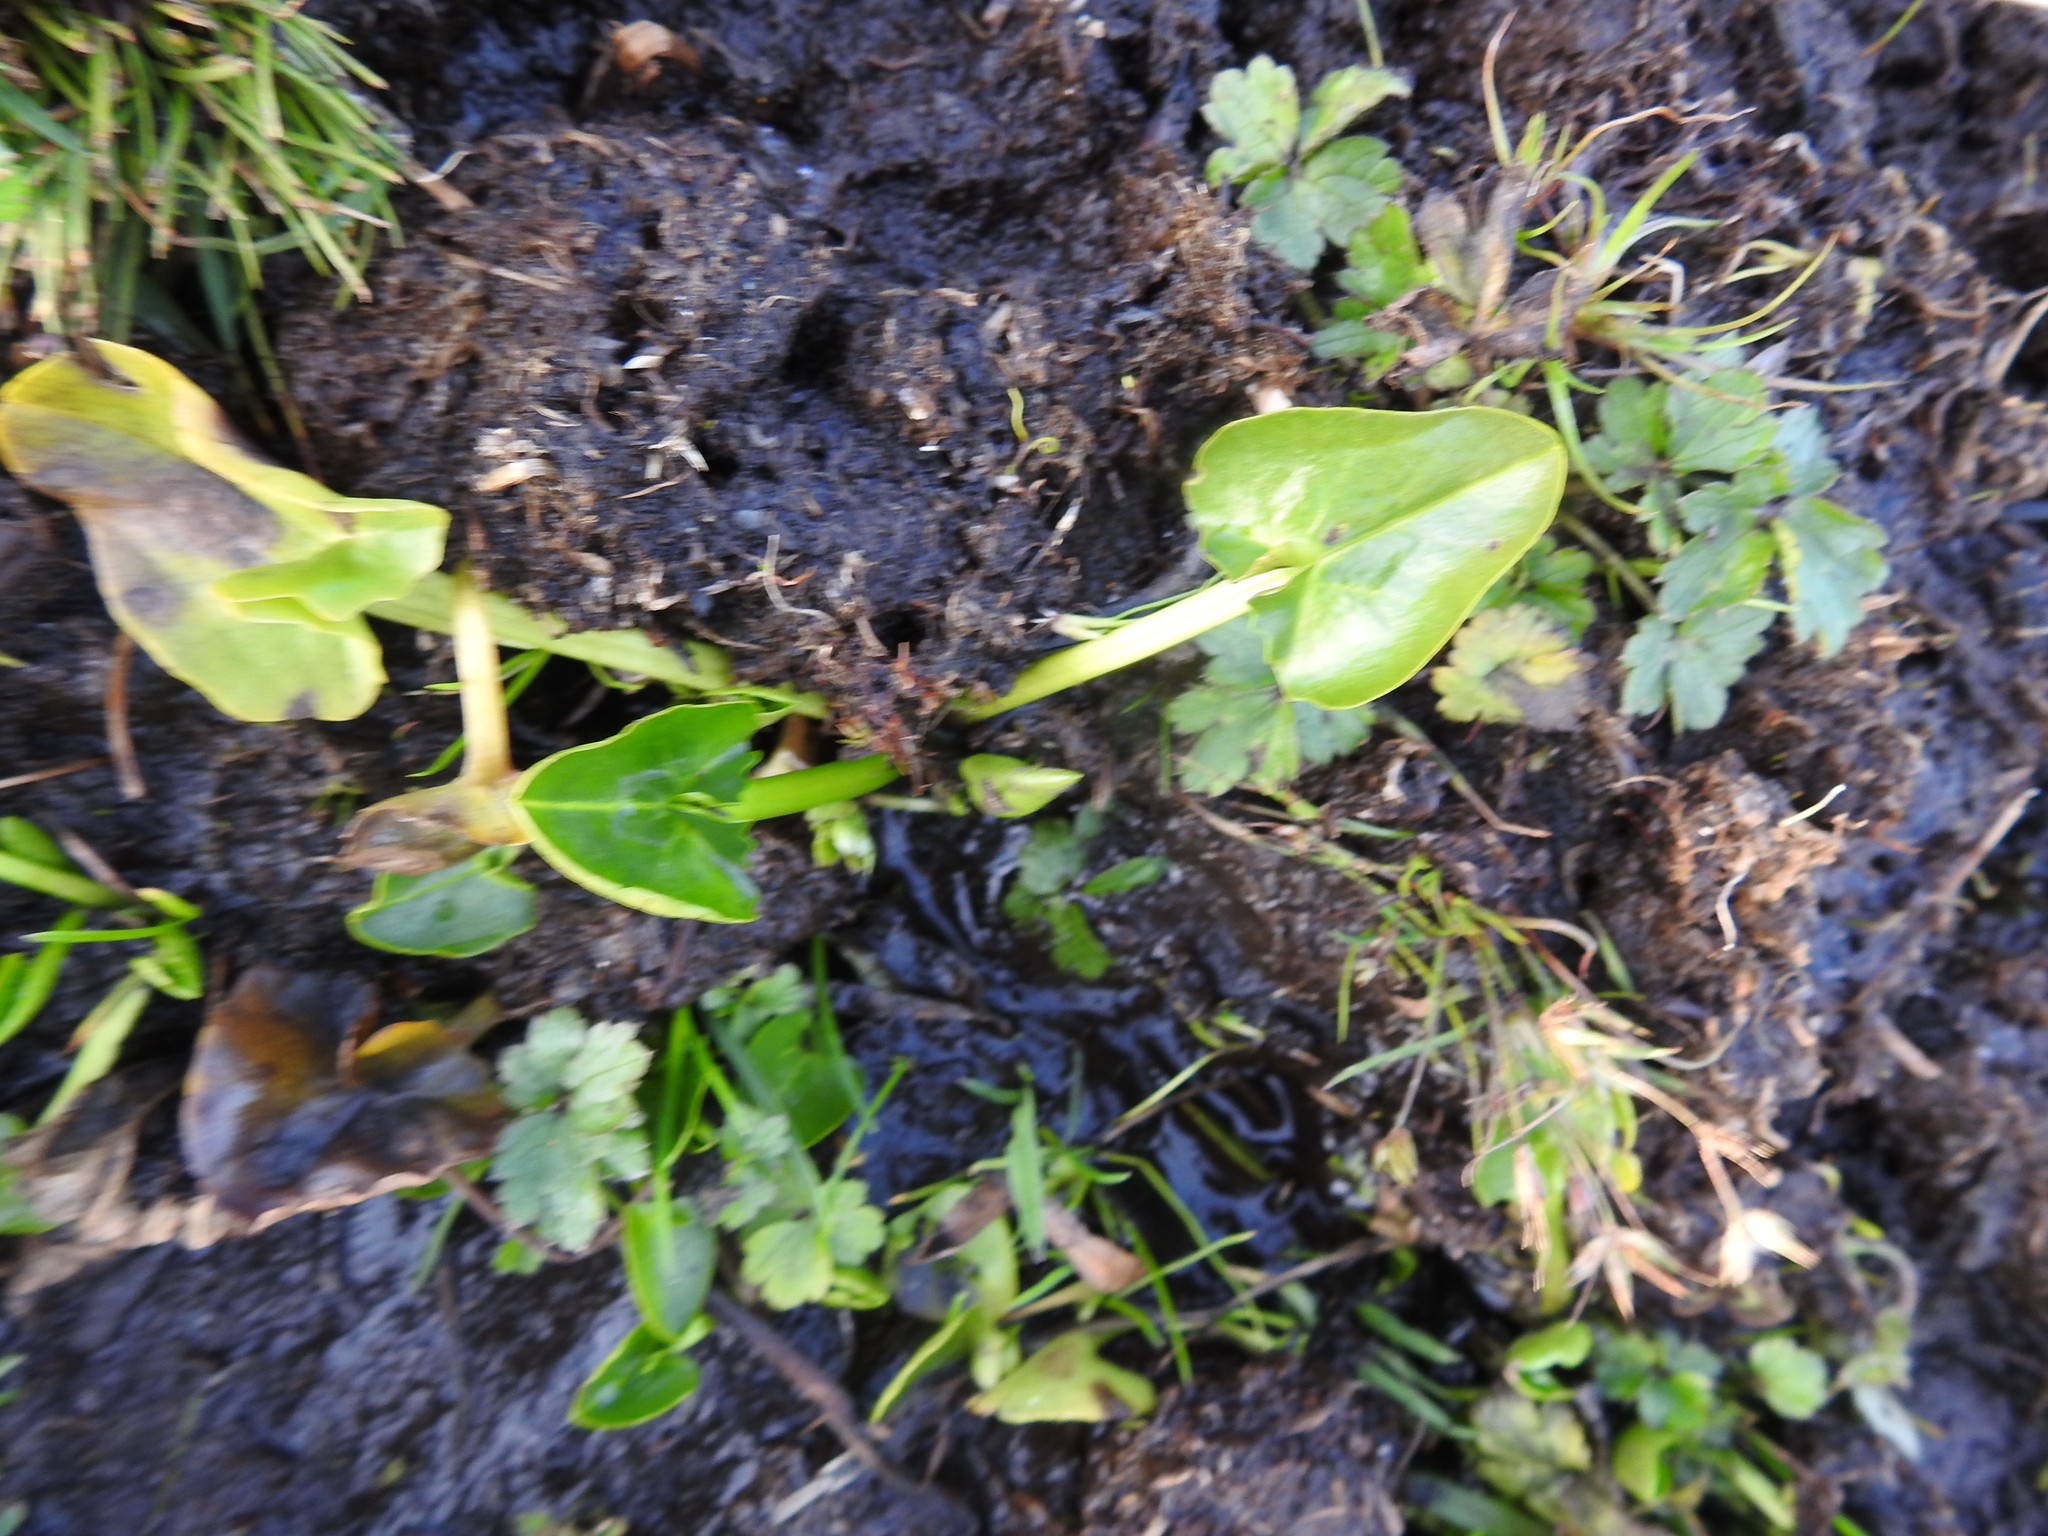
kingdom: Plantae
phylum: Tracheophyta
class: Magnoliopsida
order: Ranunculales
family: Ranunculaceae
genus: Caltha
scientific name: Caltha sagittata
